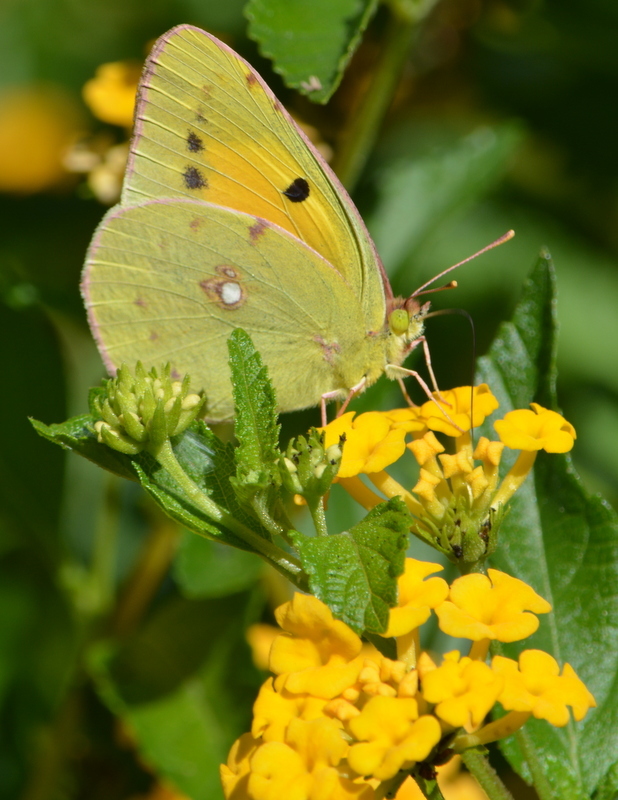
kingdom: Animalia
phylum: Arthropoda
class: Insecta
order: Lepidoptera
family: Pieridae
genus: Colias
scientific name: Colias croceus
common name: Clouded yellow
